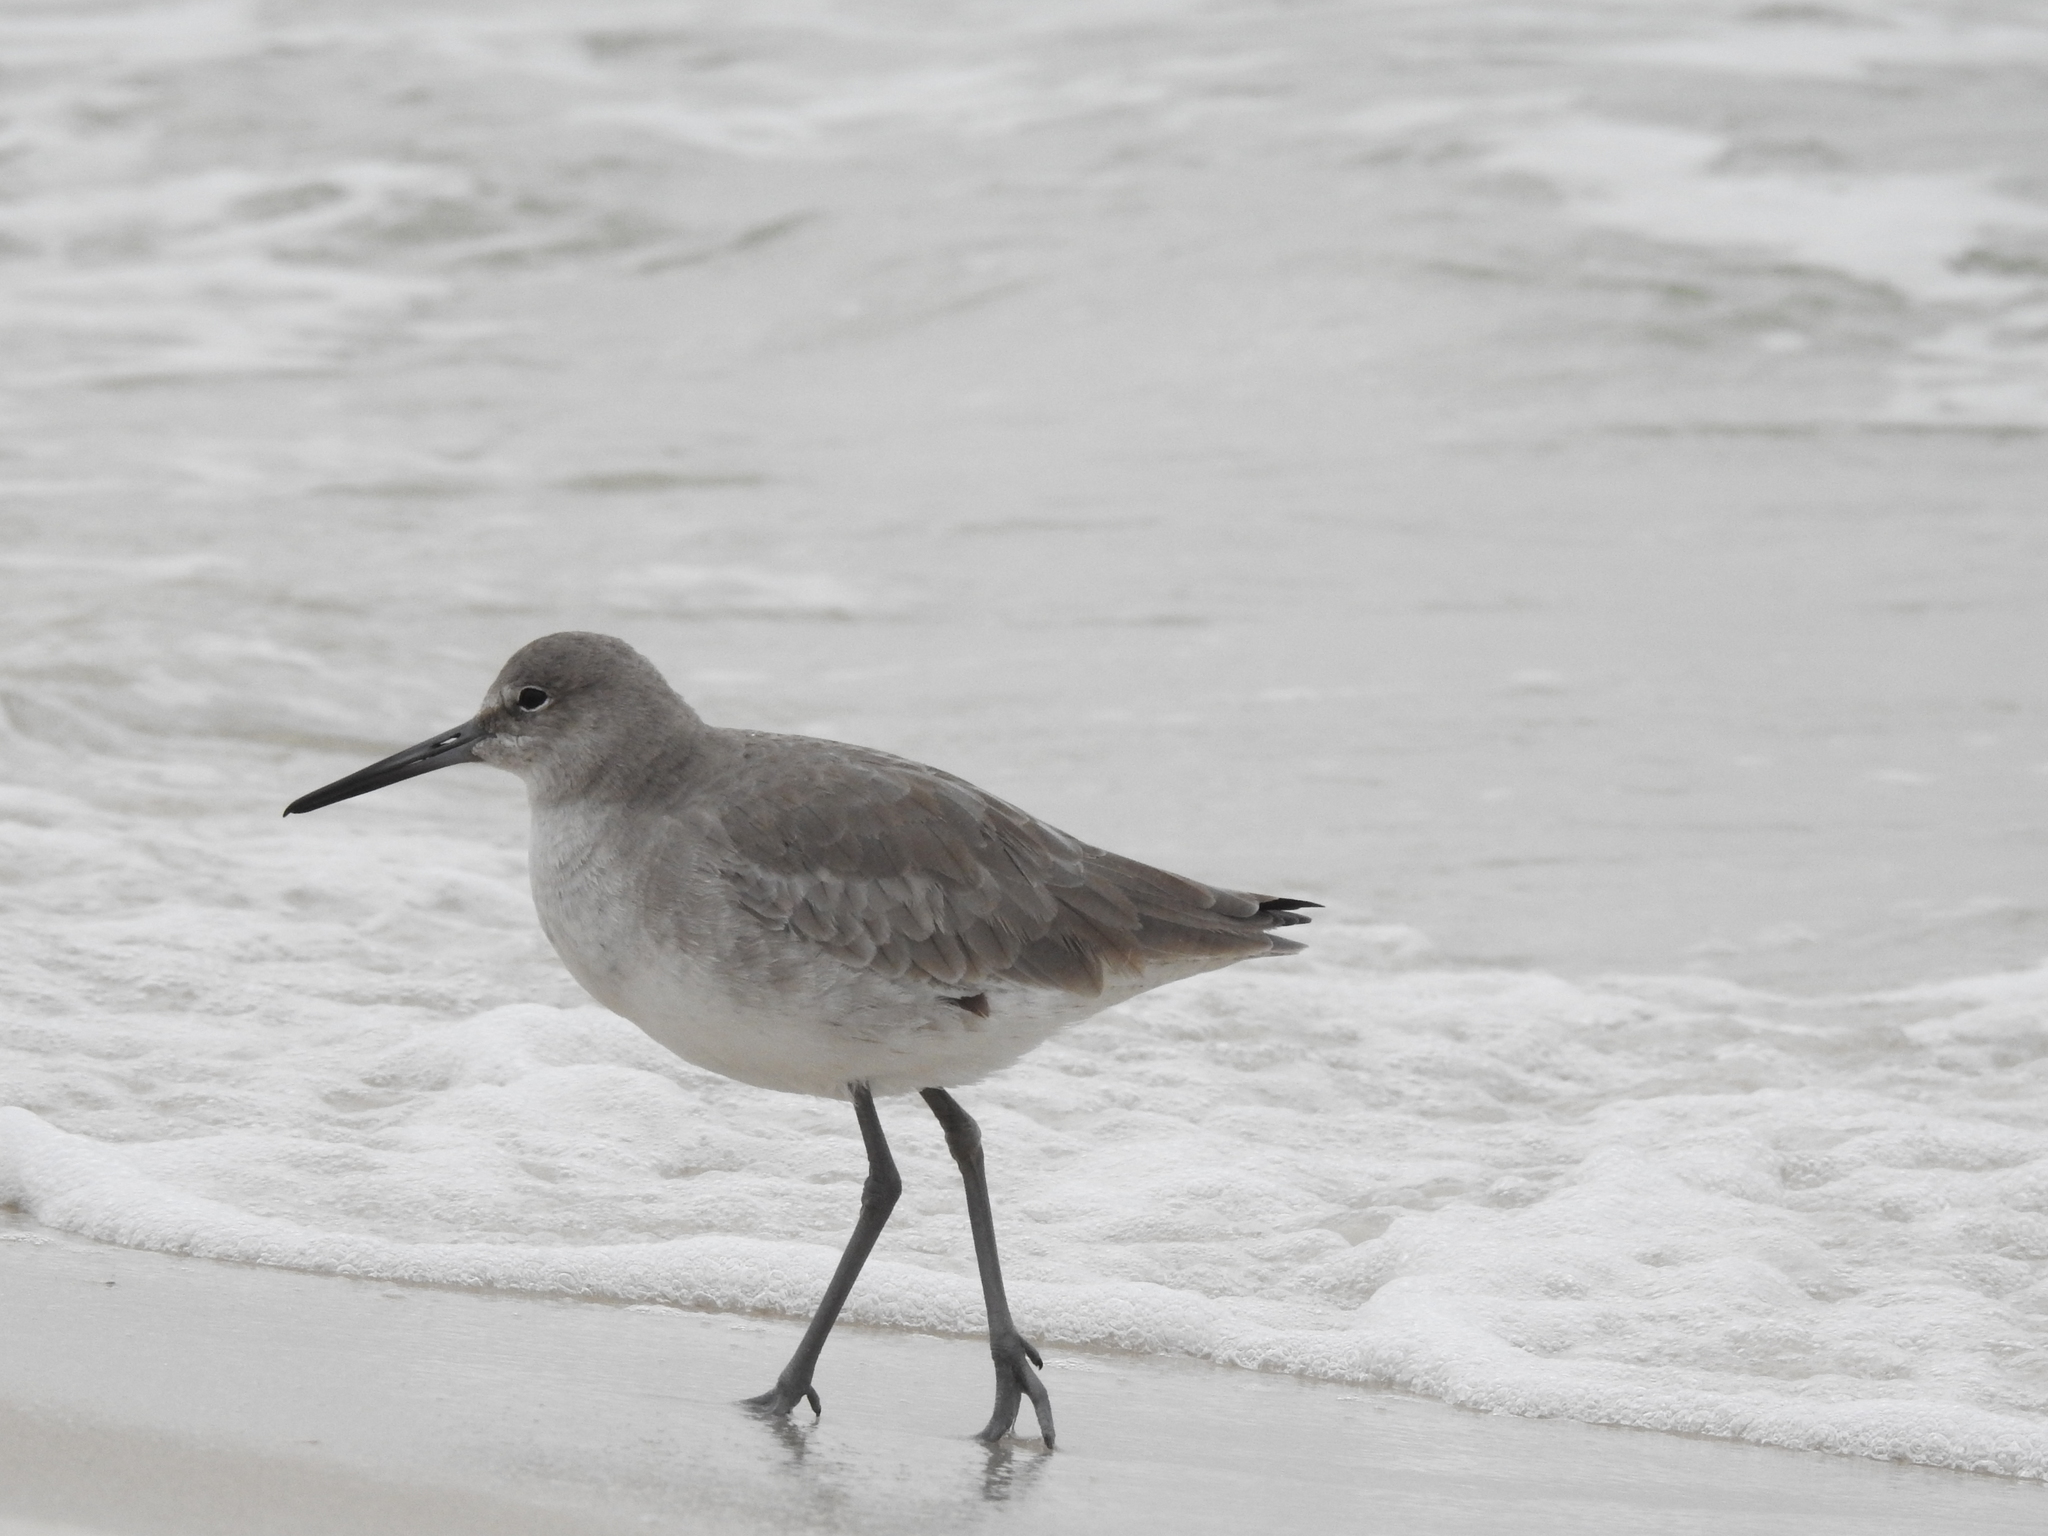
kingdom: Animalia
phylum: Chordata
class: Aves
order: Charadriiformes
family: Scolopacidae
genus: Tringa
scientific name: Tringa semipalmata
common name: Willet
